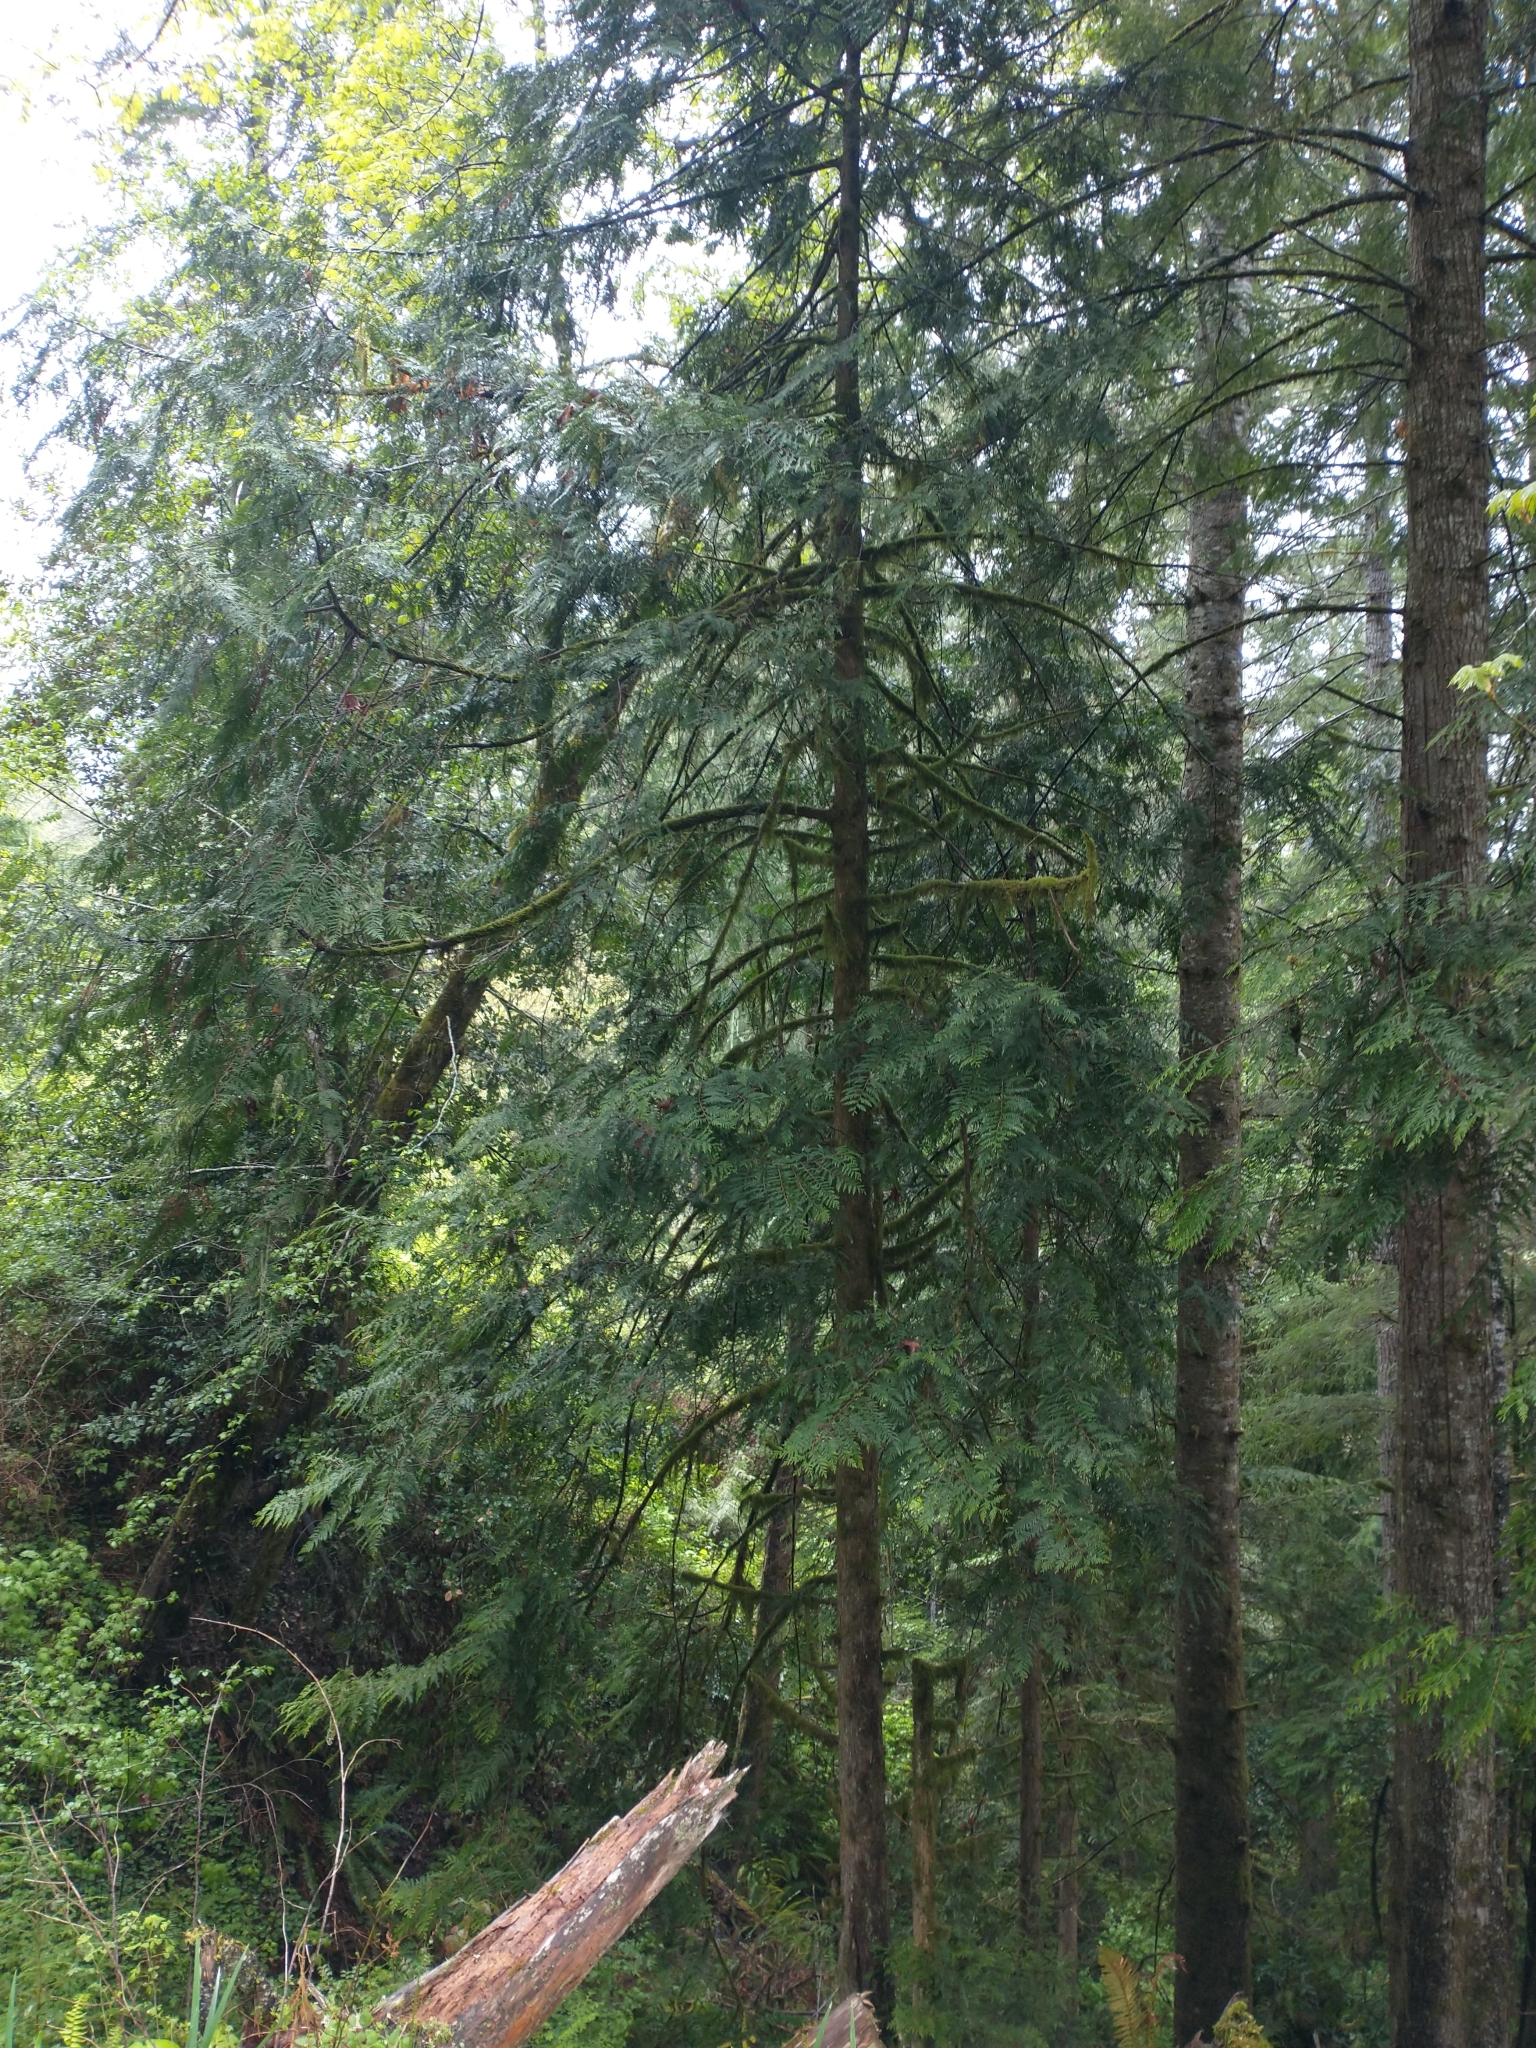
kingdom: Plantae
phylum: Tracheophyta
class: Pinopsida
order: Pinales
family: Cupressaceae
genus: Thuja
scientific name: Thuja plicata
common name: Western red-cedar
